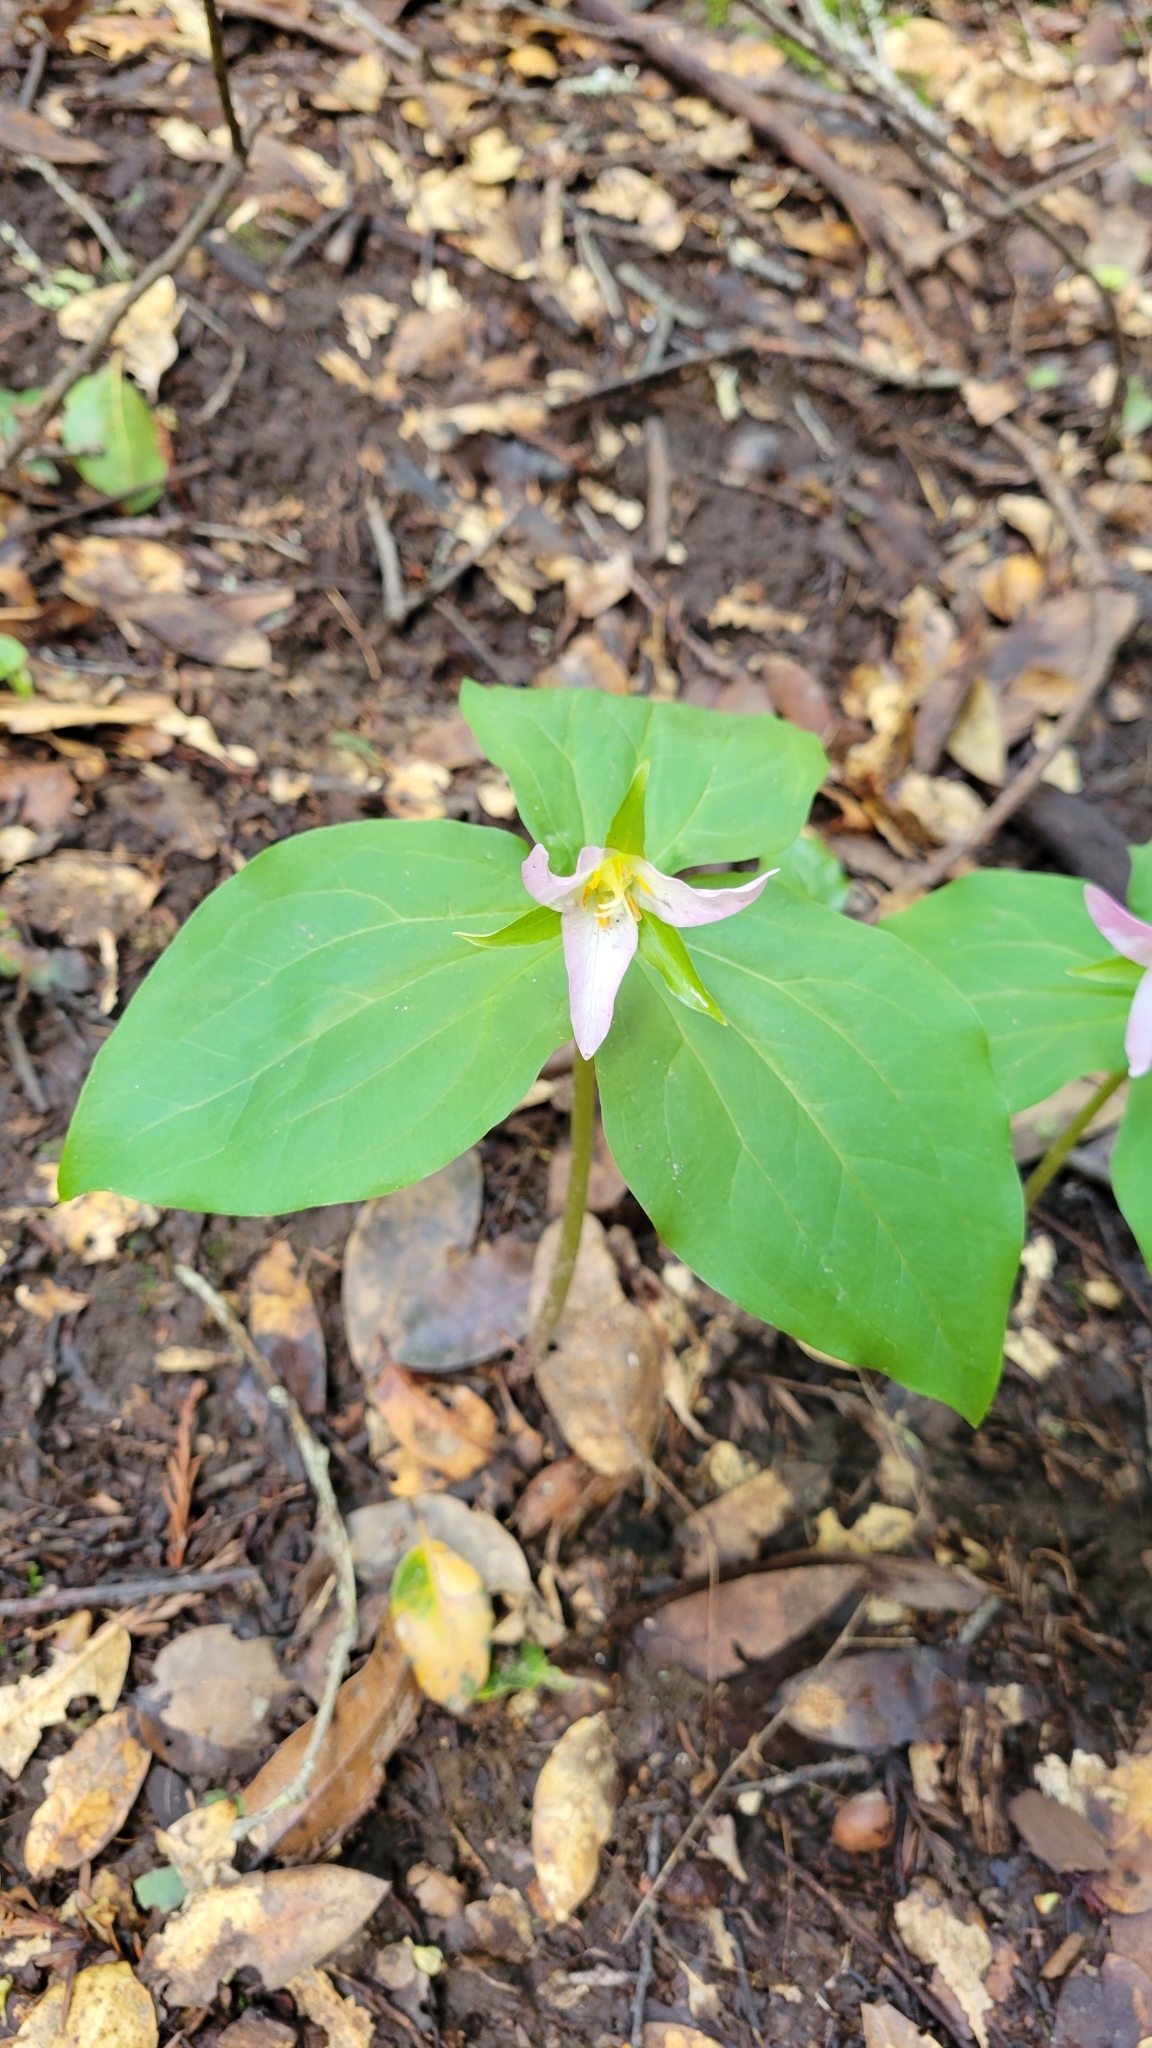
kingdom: Plantae
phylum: Tracheophyta
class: Liliopsida
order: Liliales
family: Melanthiaceae
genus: Trillium
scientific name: Trillium ovatum
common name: Pacific trillium
